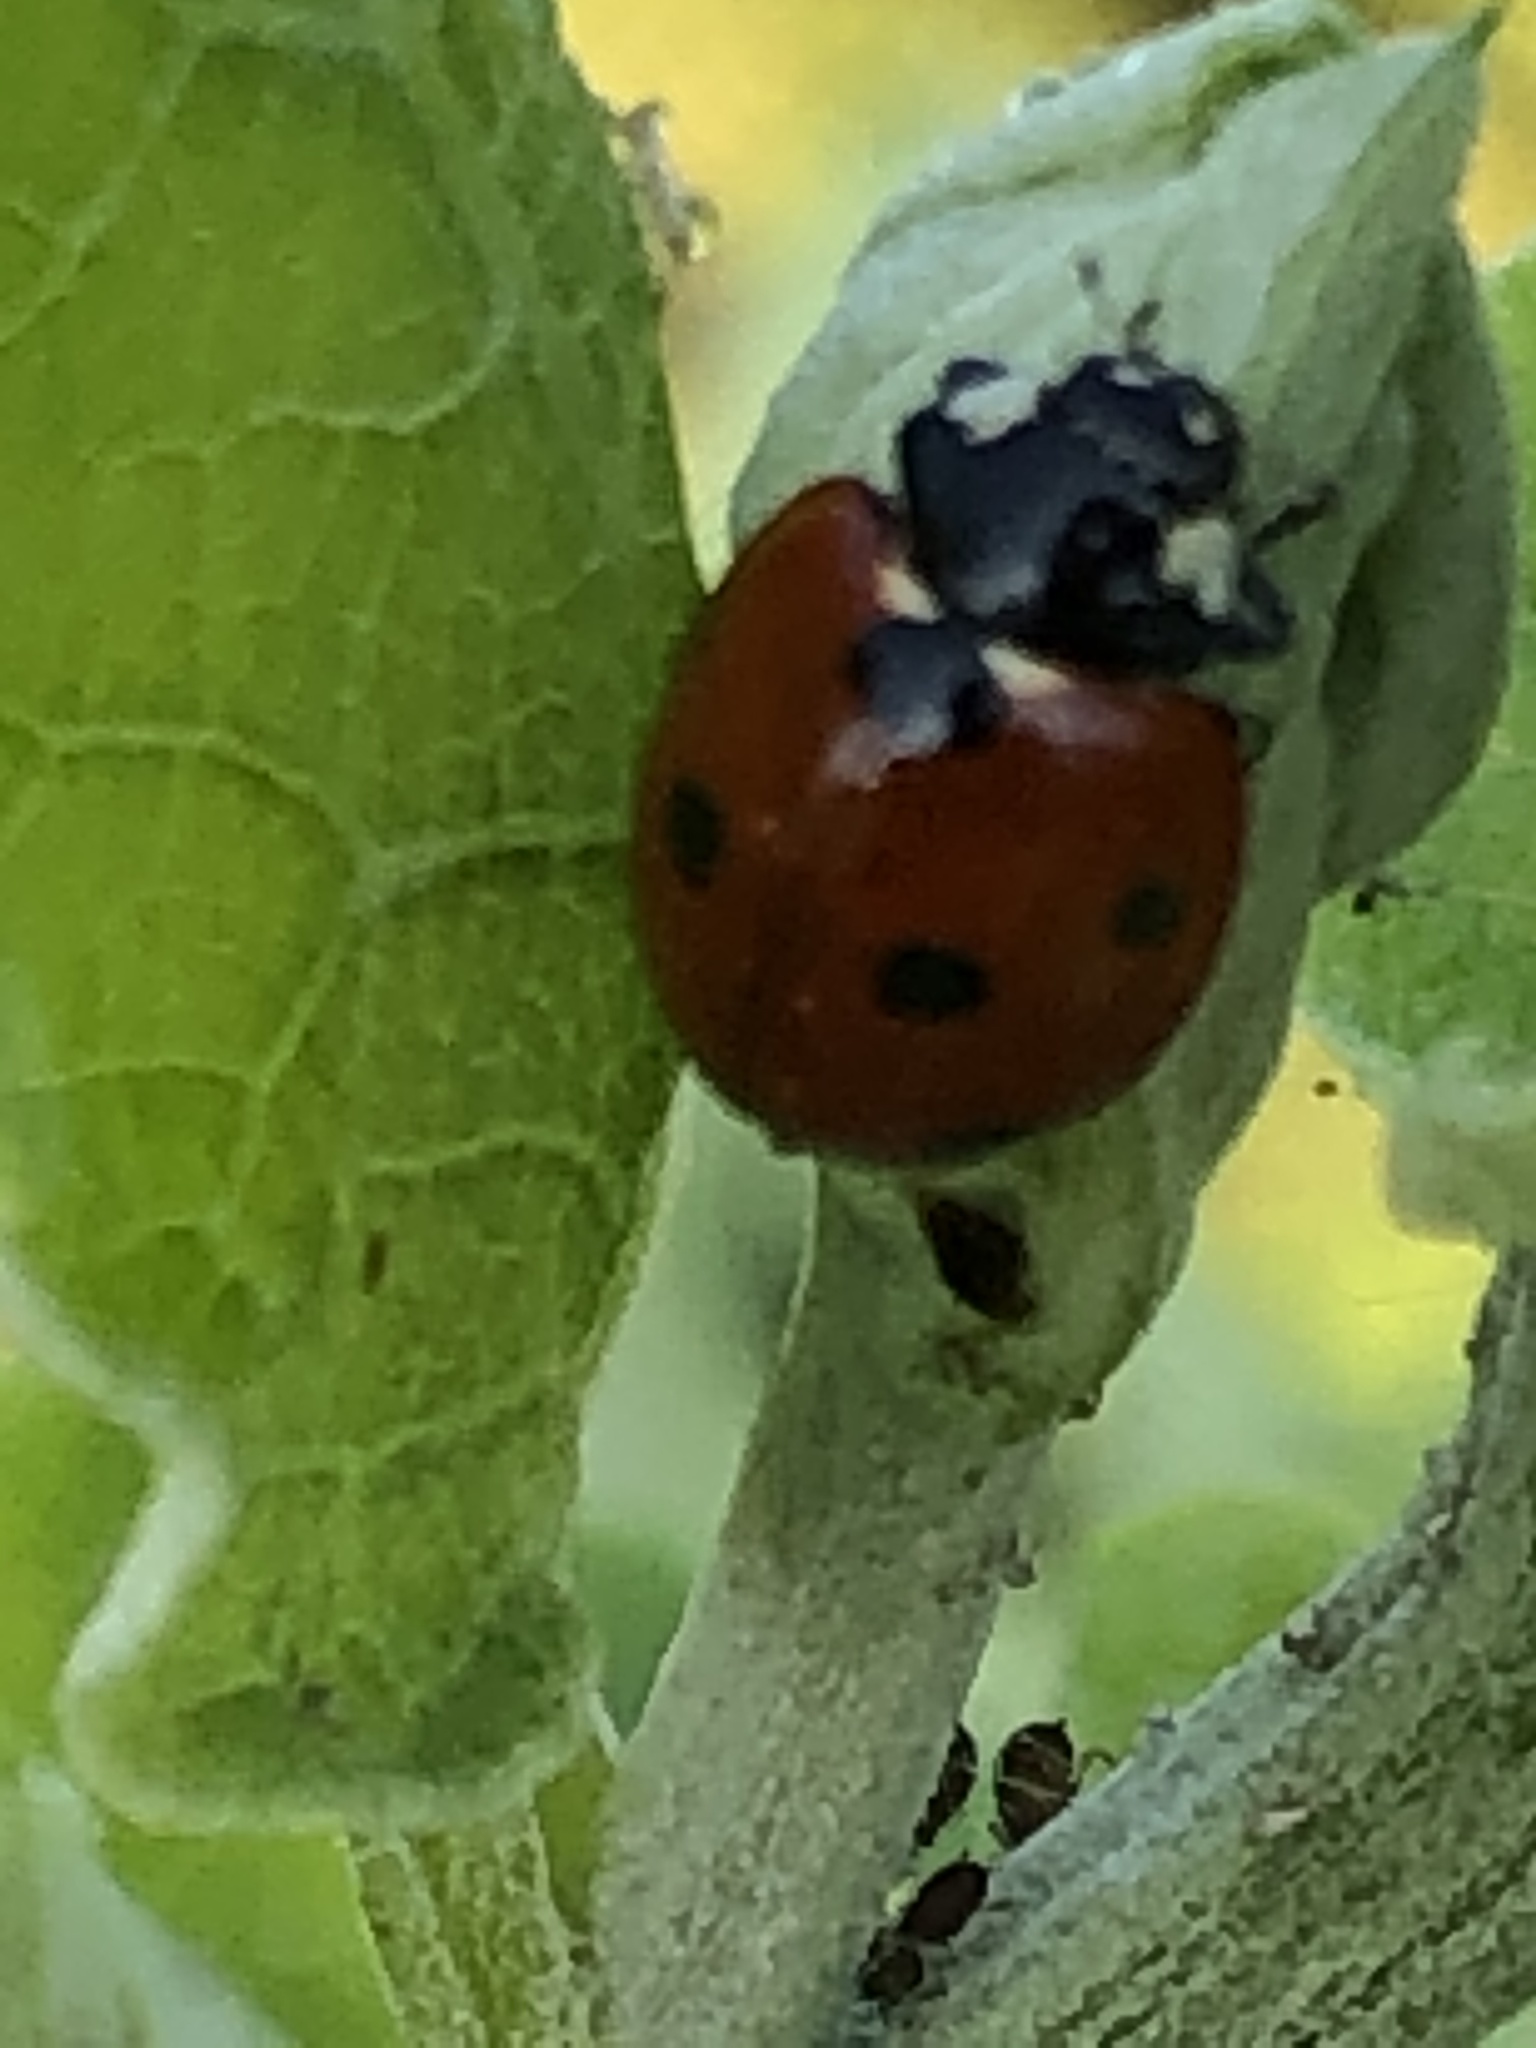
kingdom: Animalia
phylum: Arthropoda
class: Insecta
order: Coleoptera
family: Coccinellidae
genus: Coccinella
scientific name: Coccinella septempunctata
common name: Sevenspotted lady beetle
